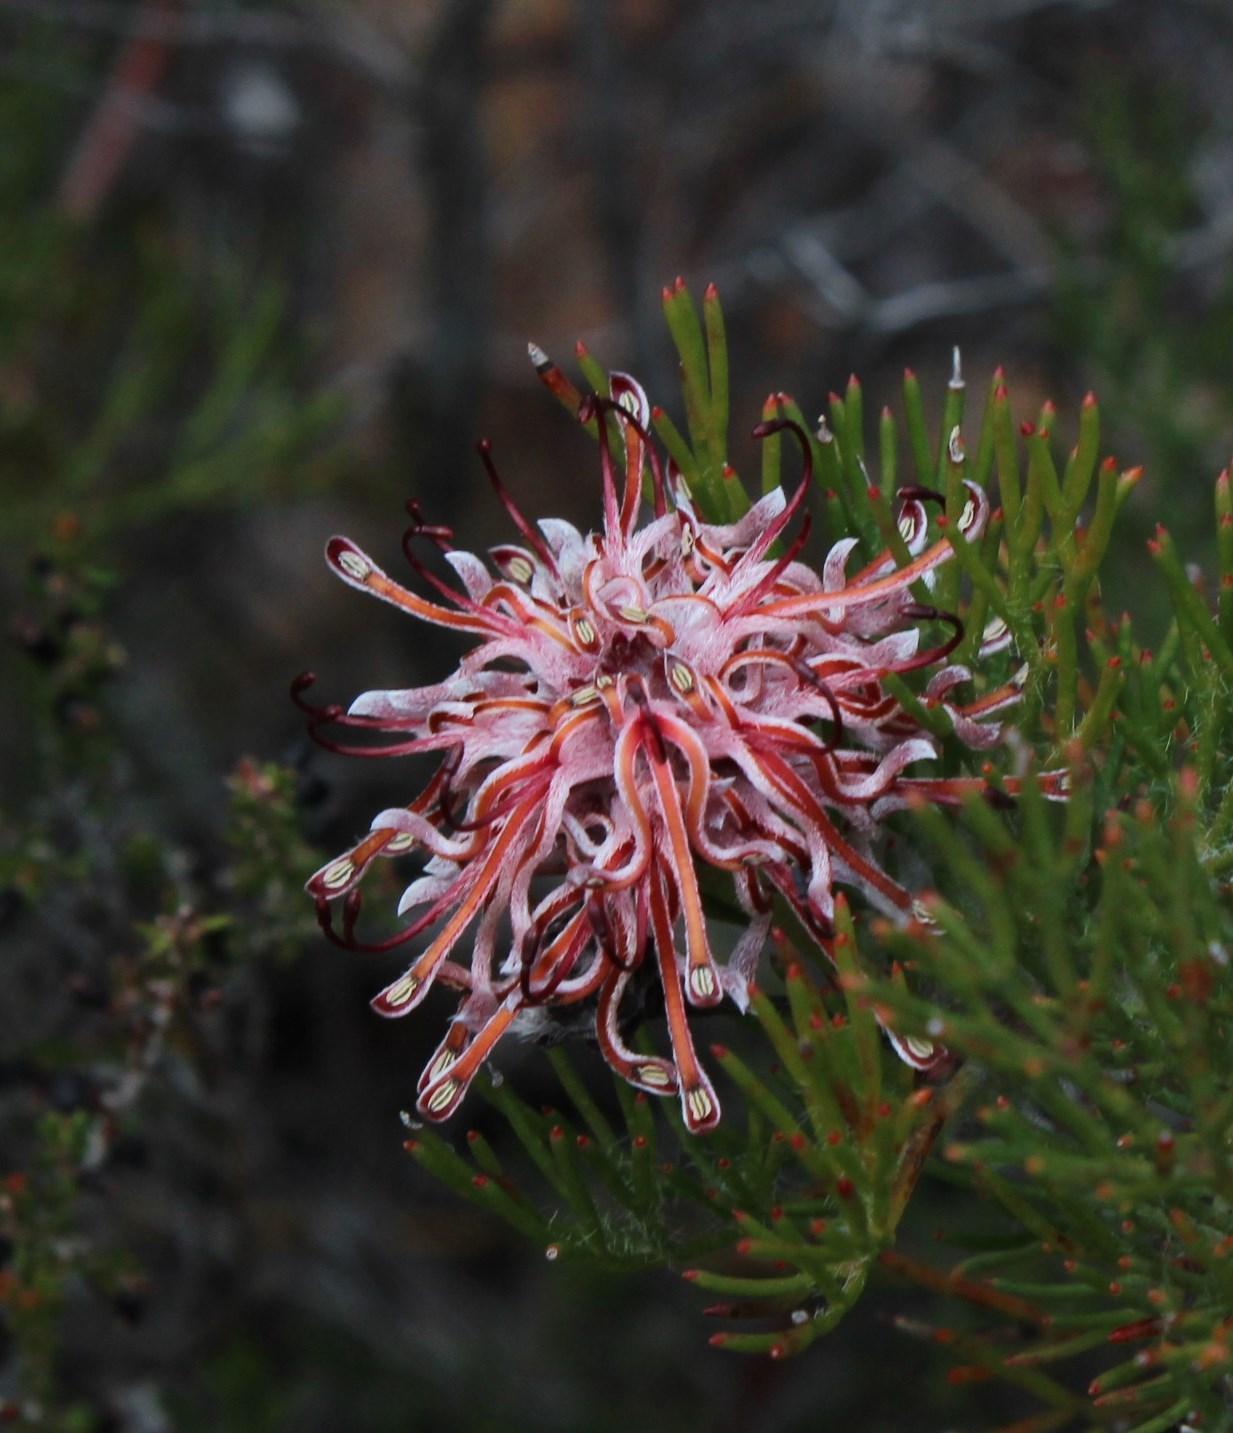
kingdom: Plantae
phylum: Tracheophyta
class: Magnoliopsida
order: Proteales
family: Proteaceae
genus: Serruria
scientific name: Serruria gremialis
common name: Riviersonderend spiderhead
